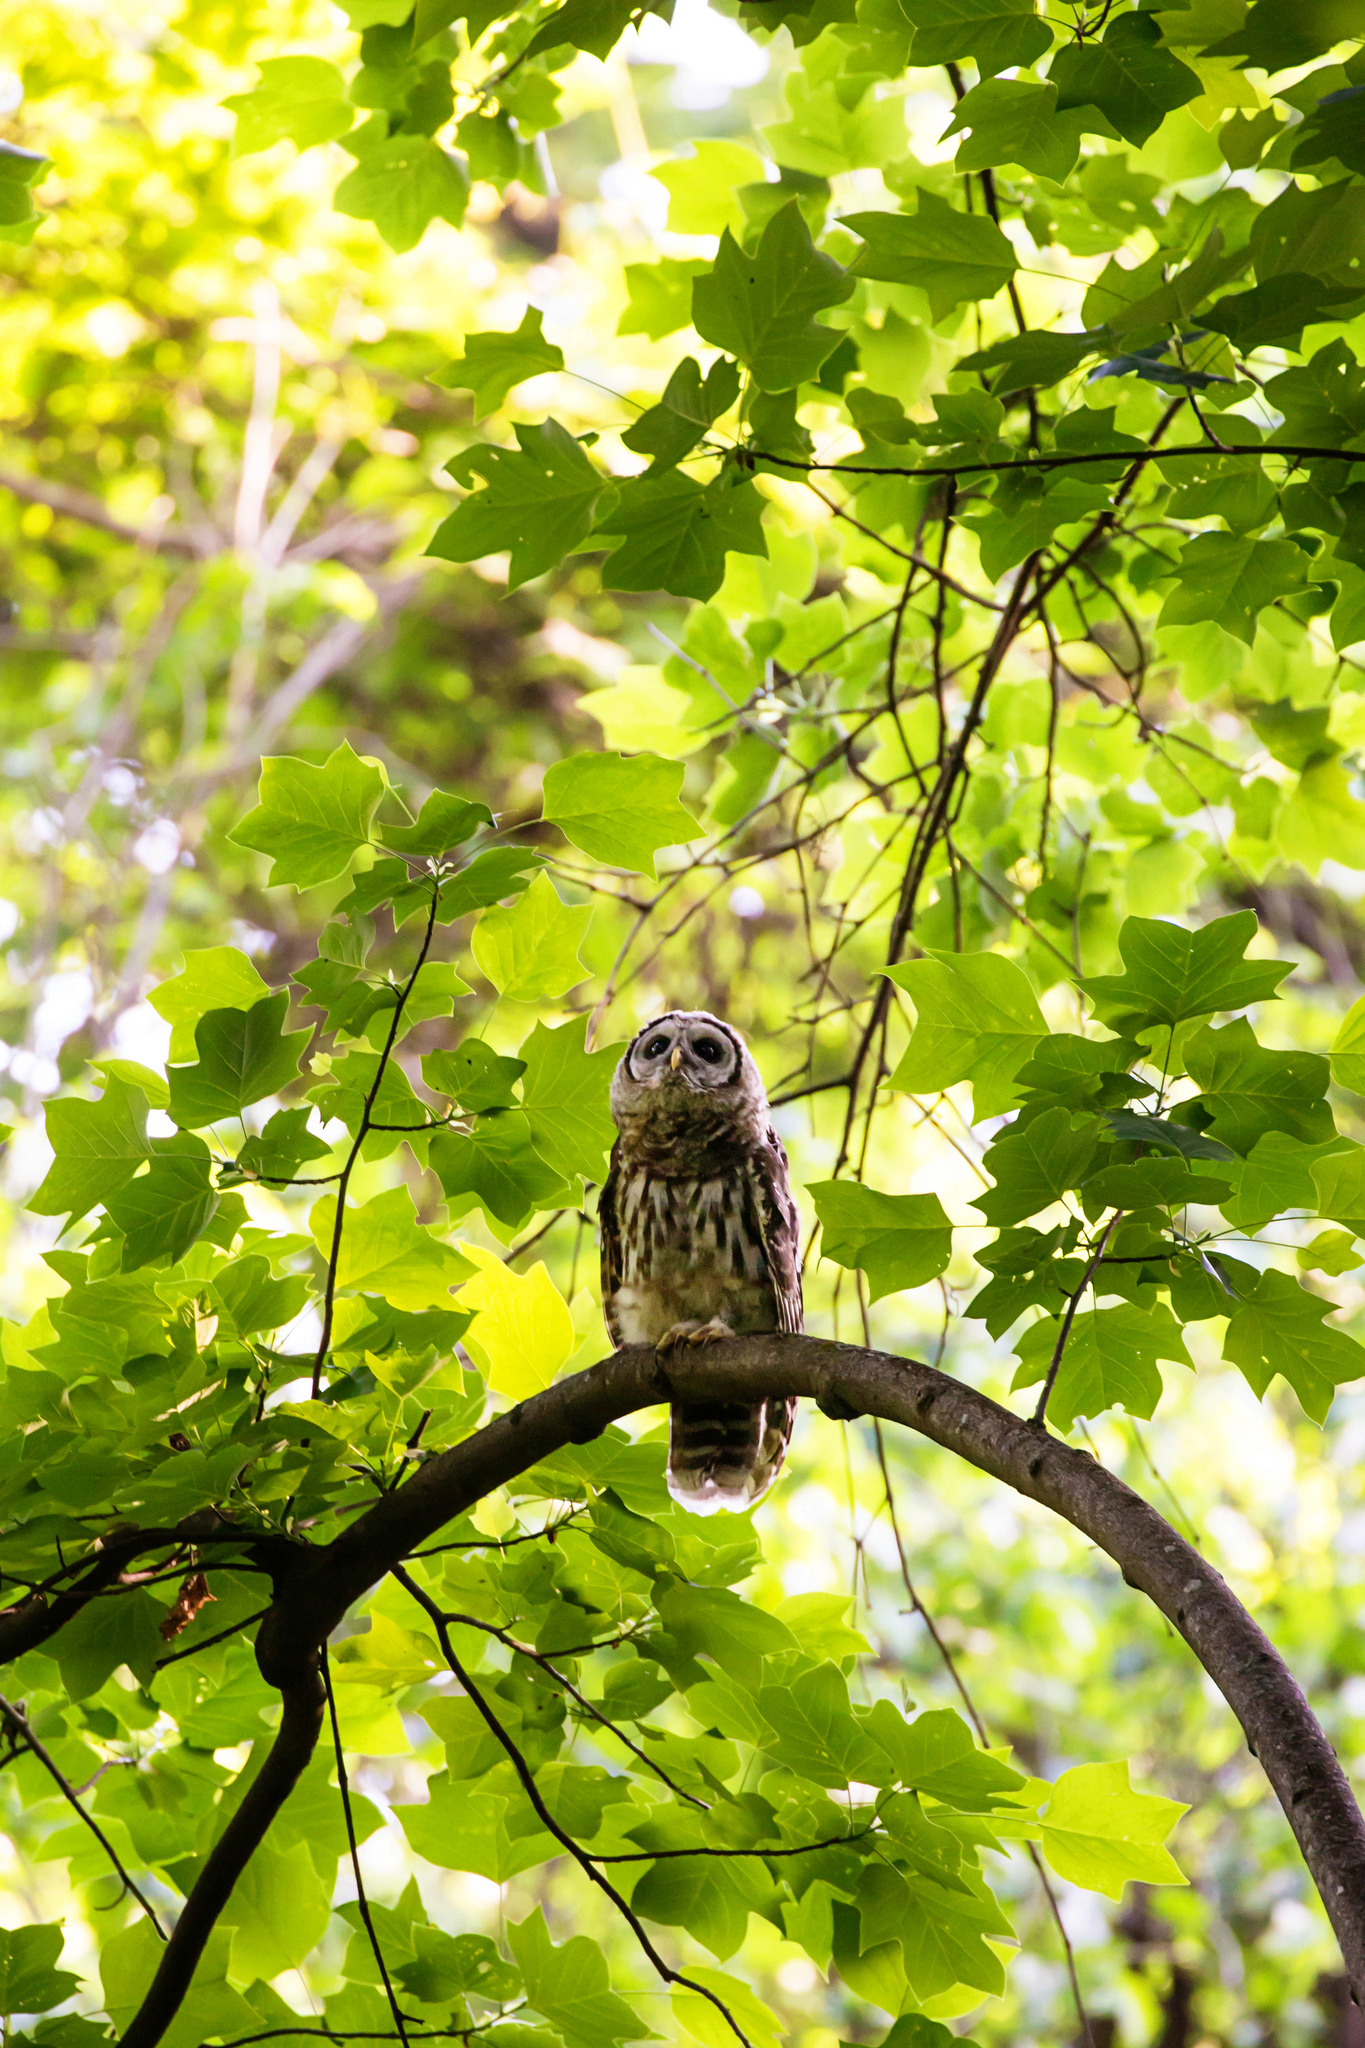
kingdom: Animalia
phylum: Chordata
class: Aves
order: Strigiformes
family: Strigidae
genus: Strix
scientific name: Strix varia
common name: Barred owl
